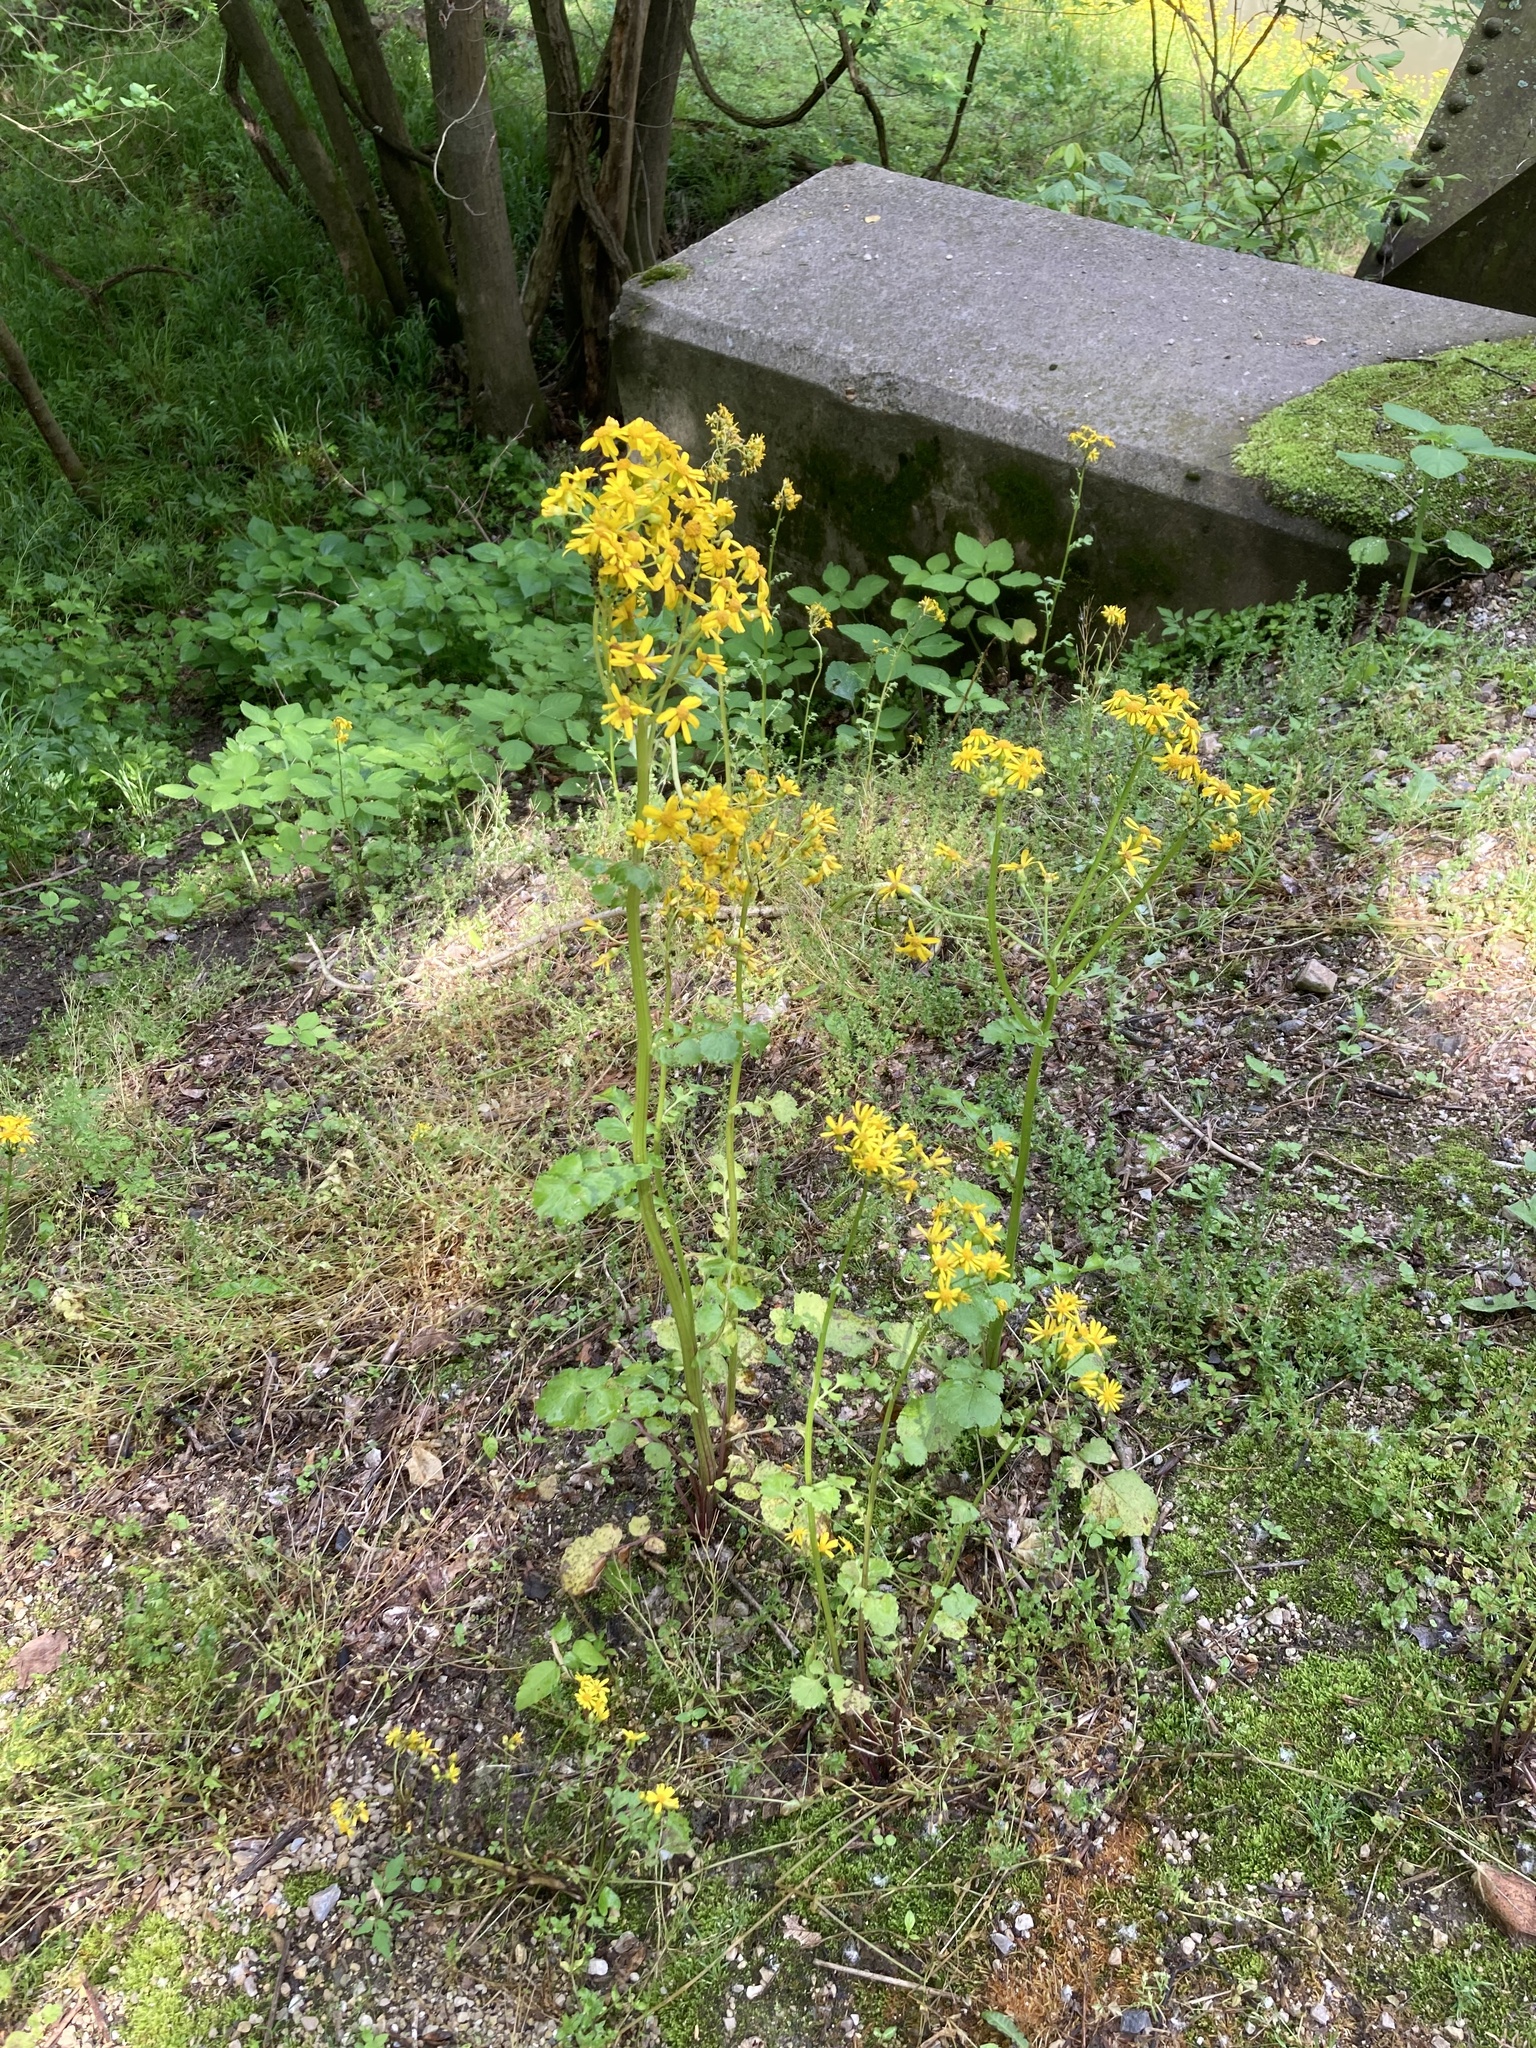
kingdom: Plantae
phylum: Tracheophyta
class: Magnoliopsida
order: Asterales
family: Asteraceae
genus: Packera
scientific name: Packera glabella
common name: Butterweed
